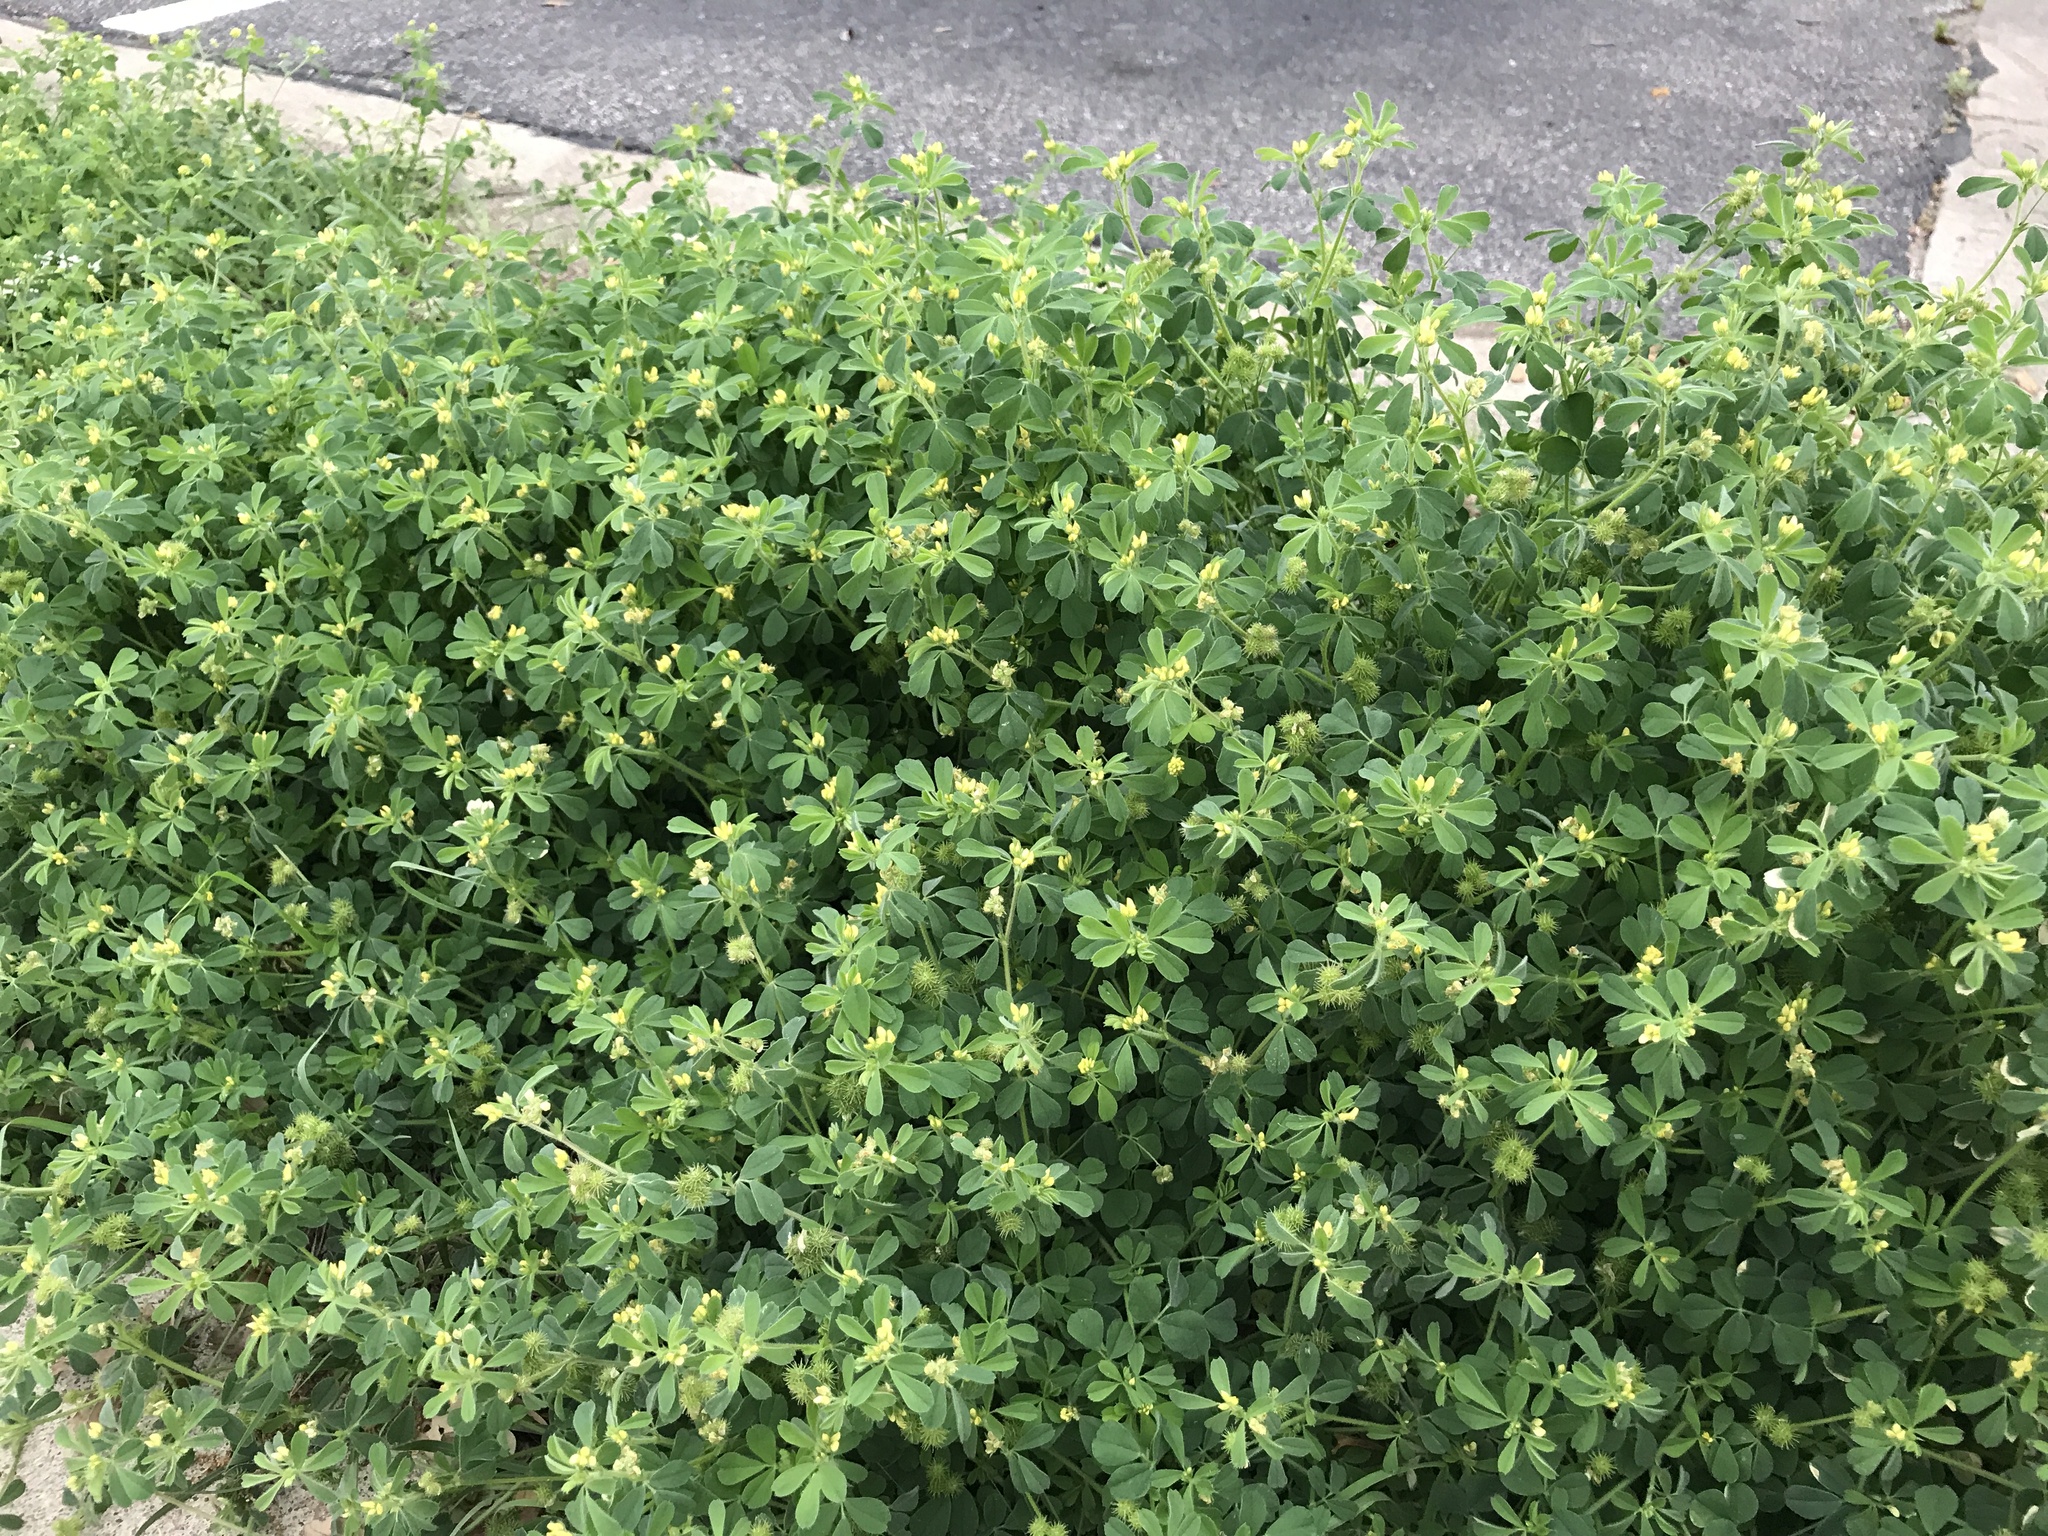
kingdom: Plantae
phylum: Tracheophyta
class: Magnoliopsida
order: Fabales
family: Fabaceae
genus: Medicago
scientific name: Medicago minima
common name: Little bur-clover
